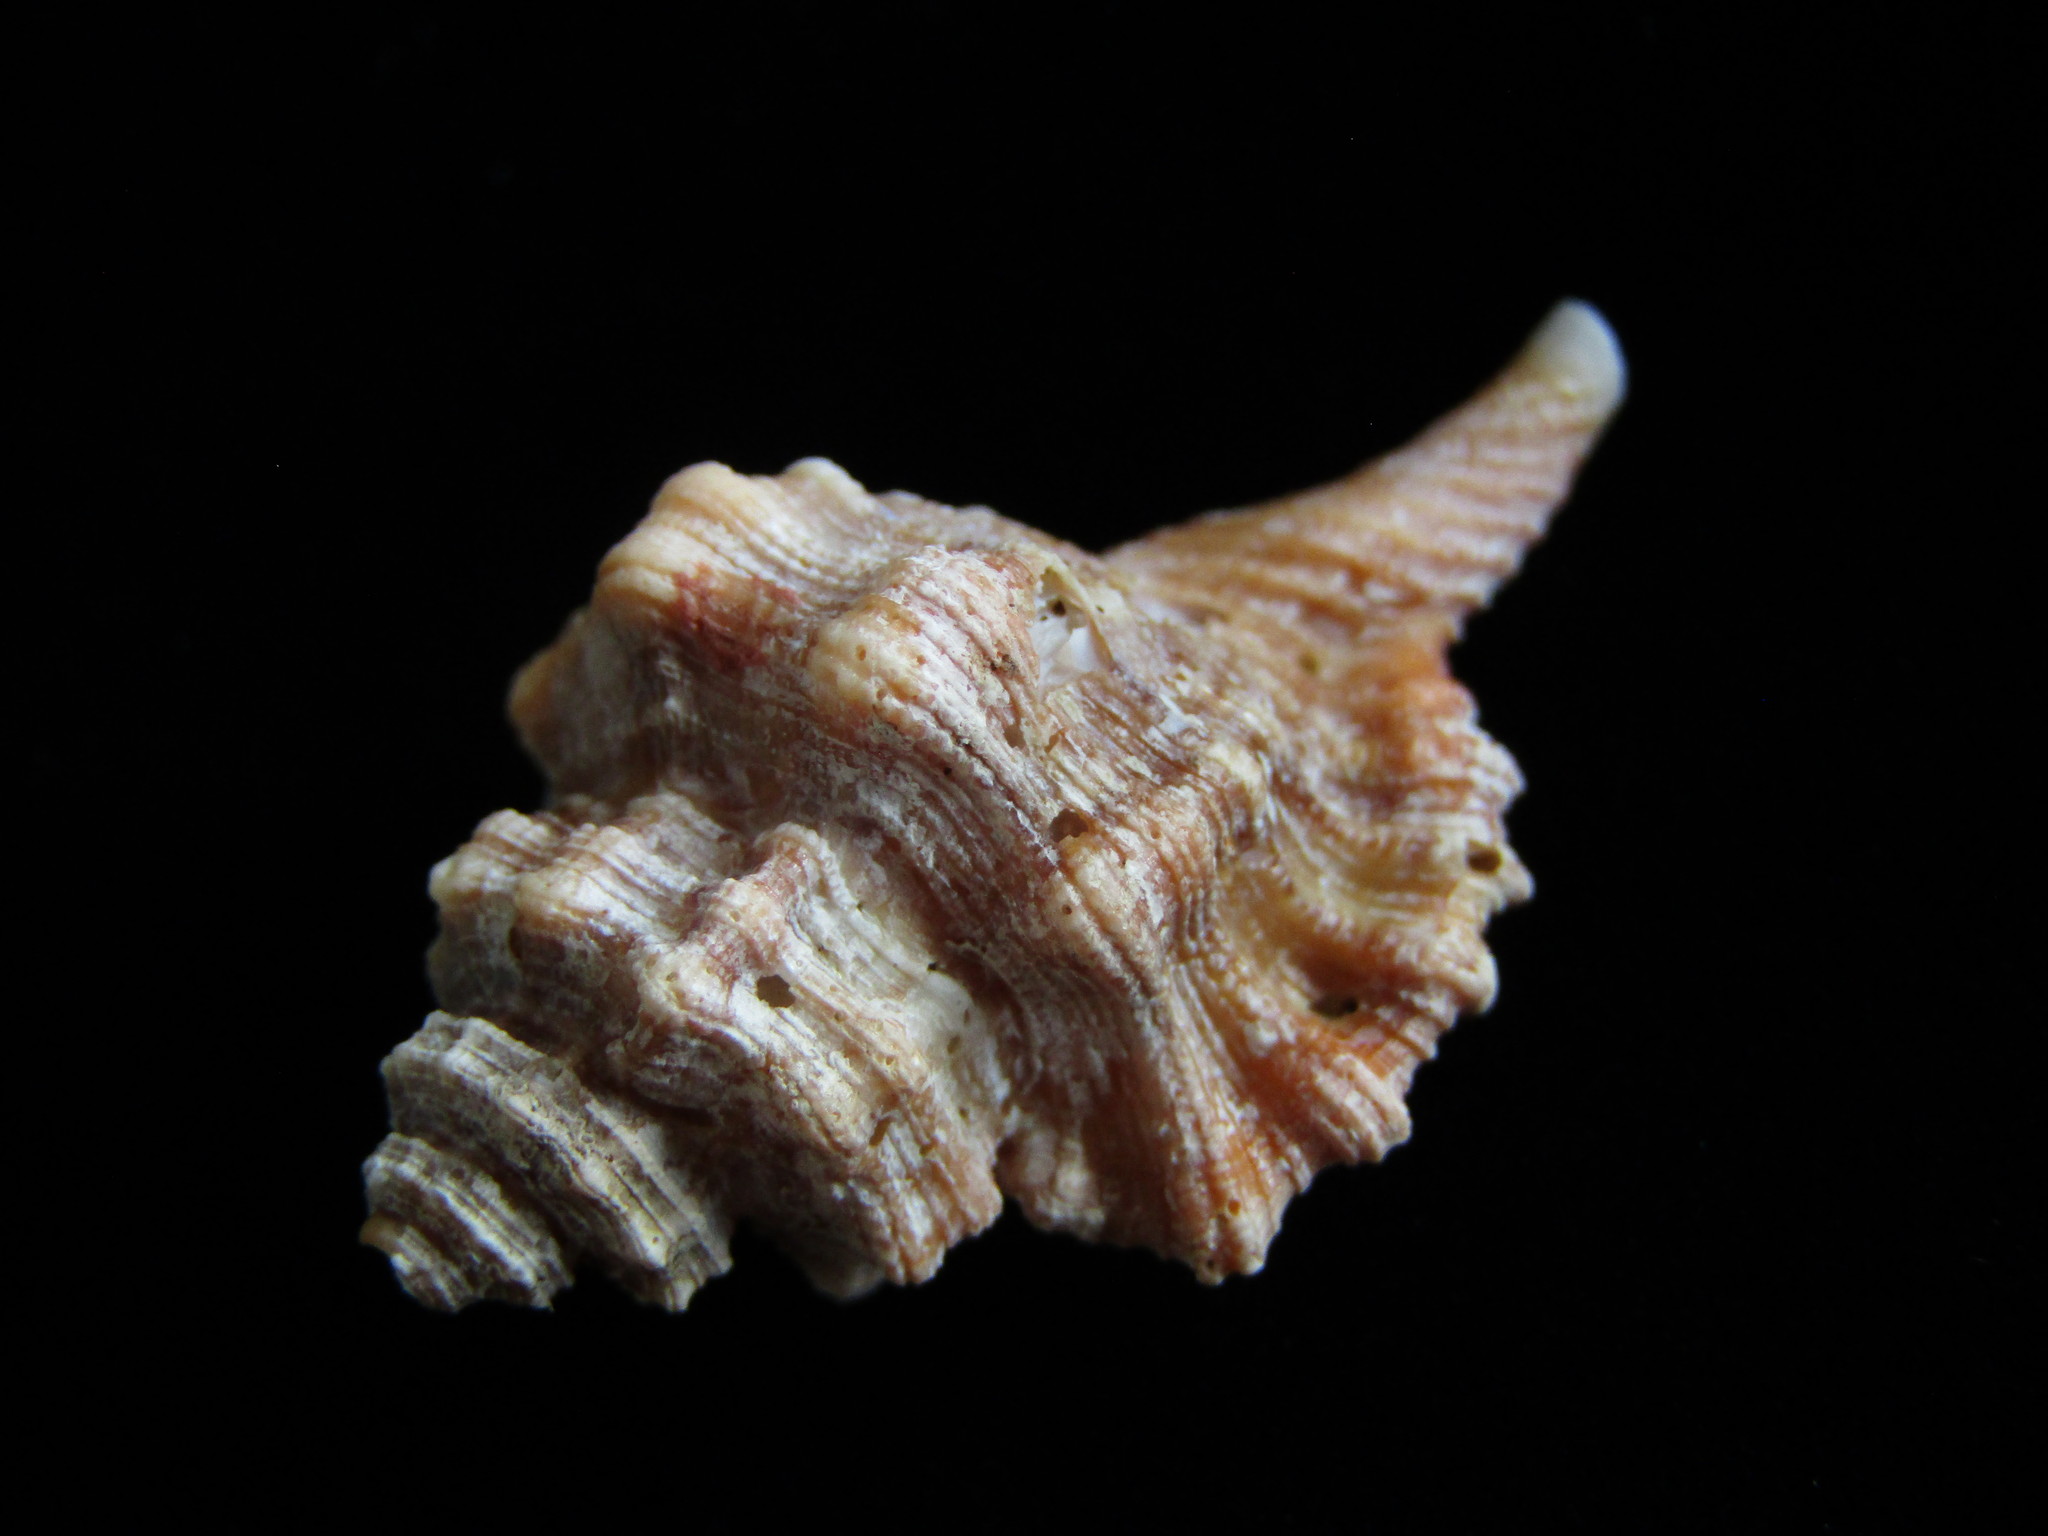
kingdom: Animalia
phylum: Mollusca
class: Gastropoda
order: Littorinimorpha
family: Cymatiidae
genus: Monoplex
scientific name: Monoplex exaratus
